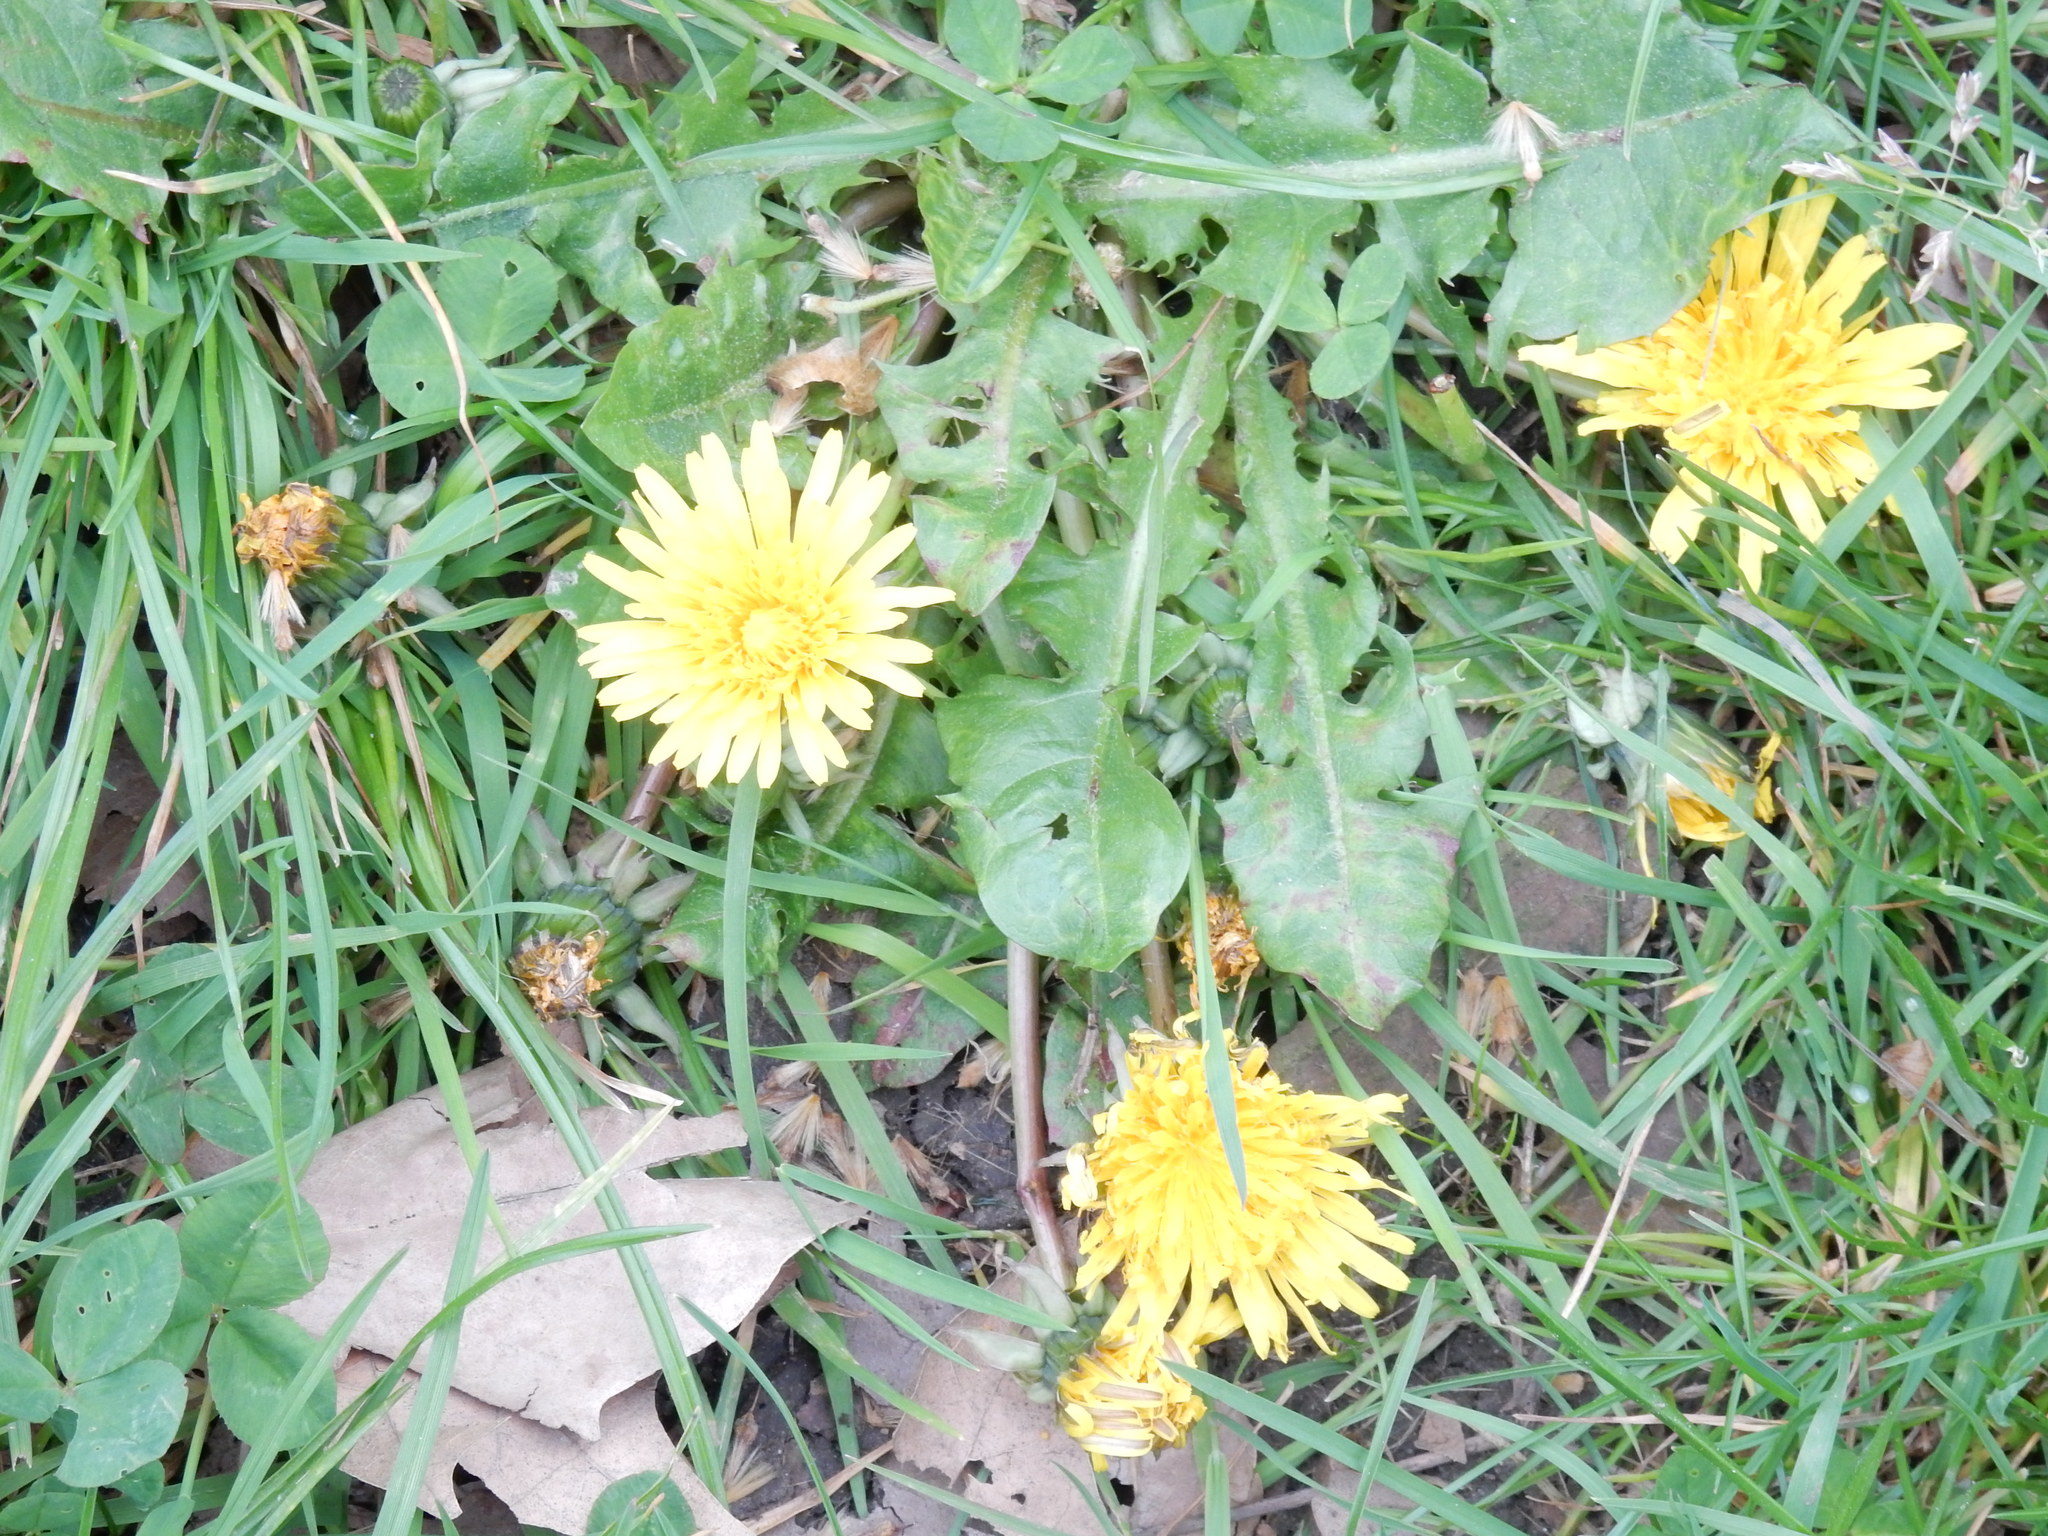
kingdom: Plantae
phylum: Tracheophyta
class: Magnoliopsida
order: Asterales
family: Asteraceae
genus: Taraxacum
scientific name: Taraxacum officinale
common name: Common dandelion
